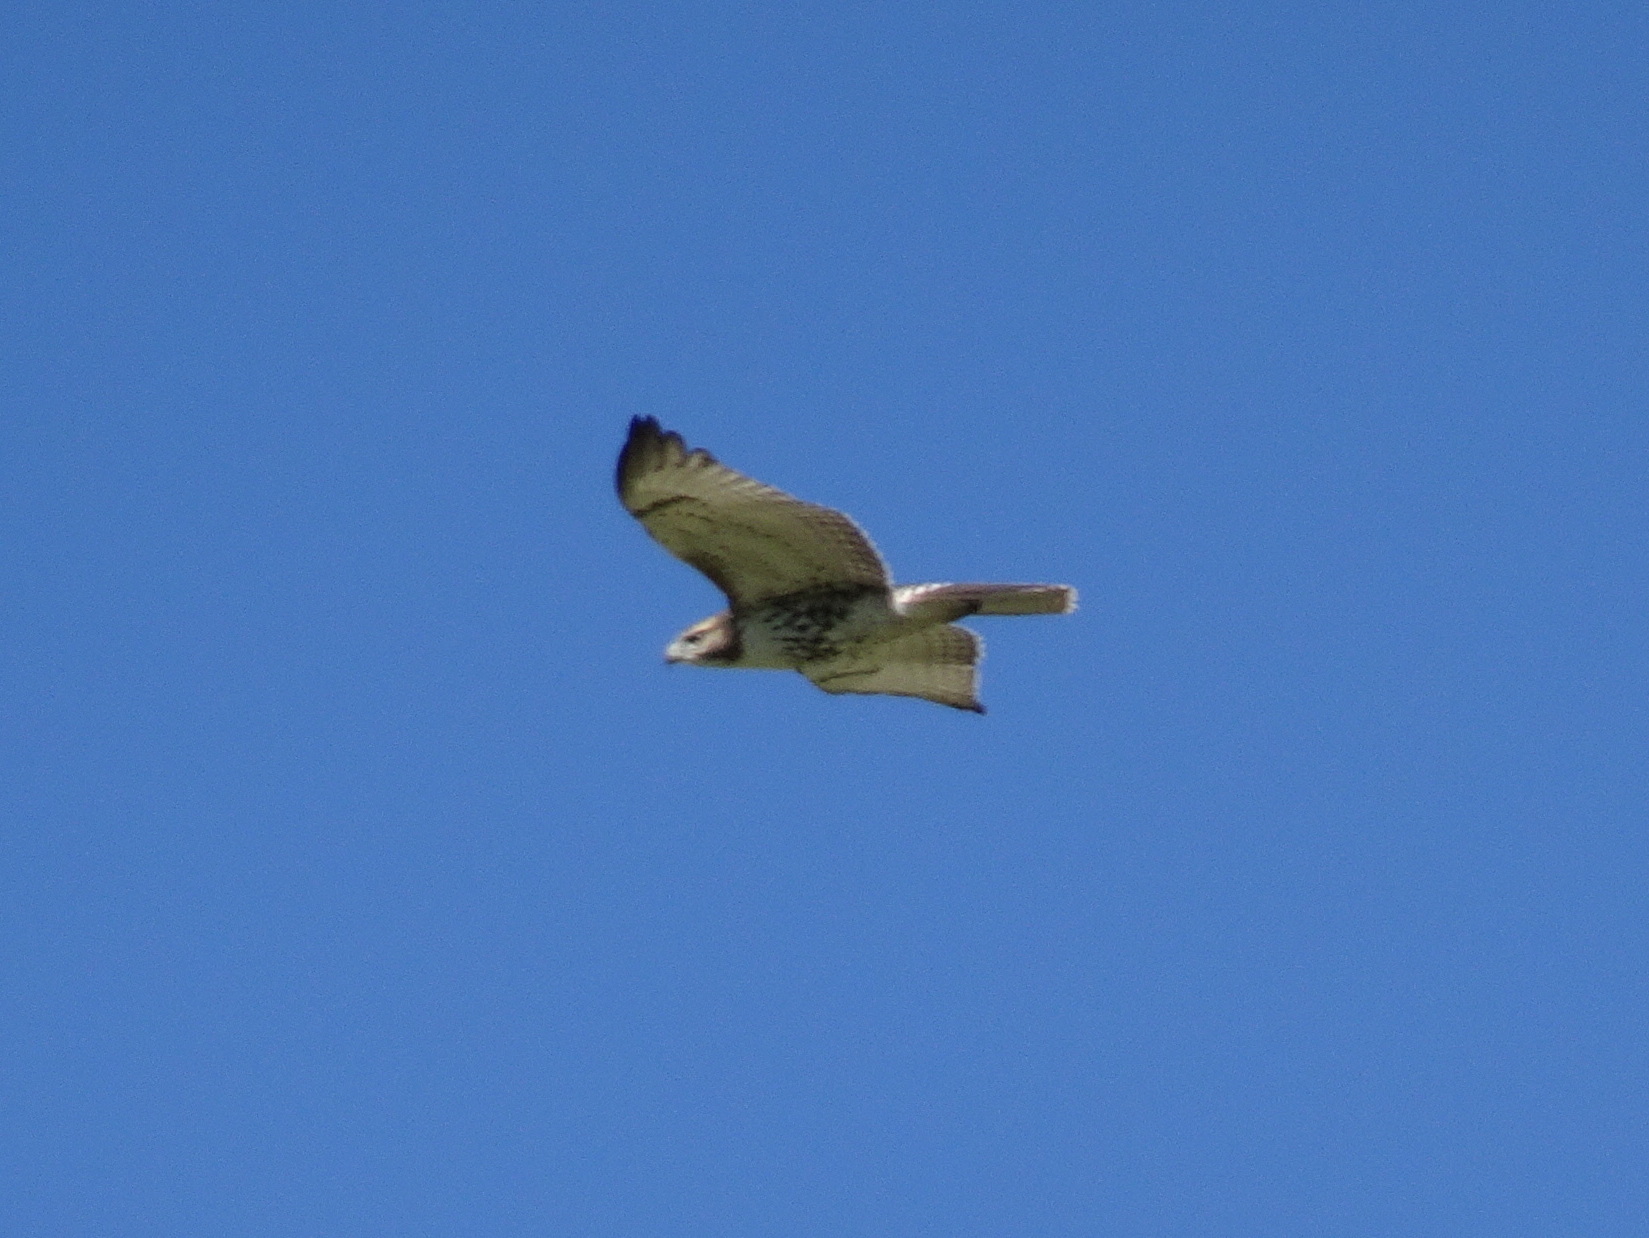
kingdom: Animalia
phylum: Chordata
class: Aves
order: Accipitriformes
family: Accipitridae
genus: Buteo
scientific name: Buteo jamaicensis
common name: Red-tailed hawk
